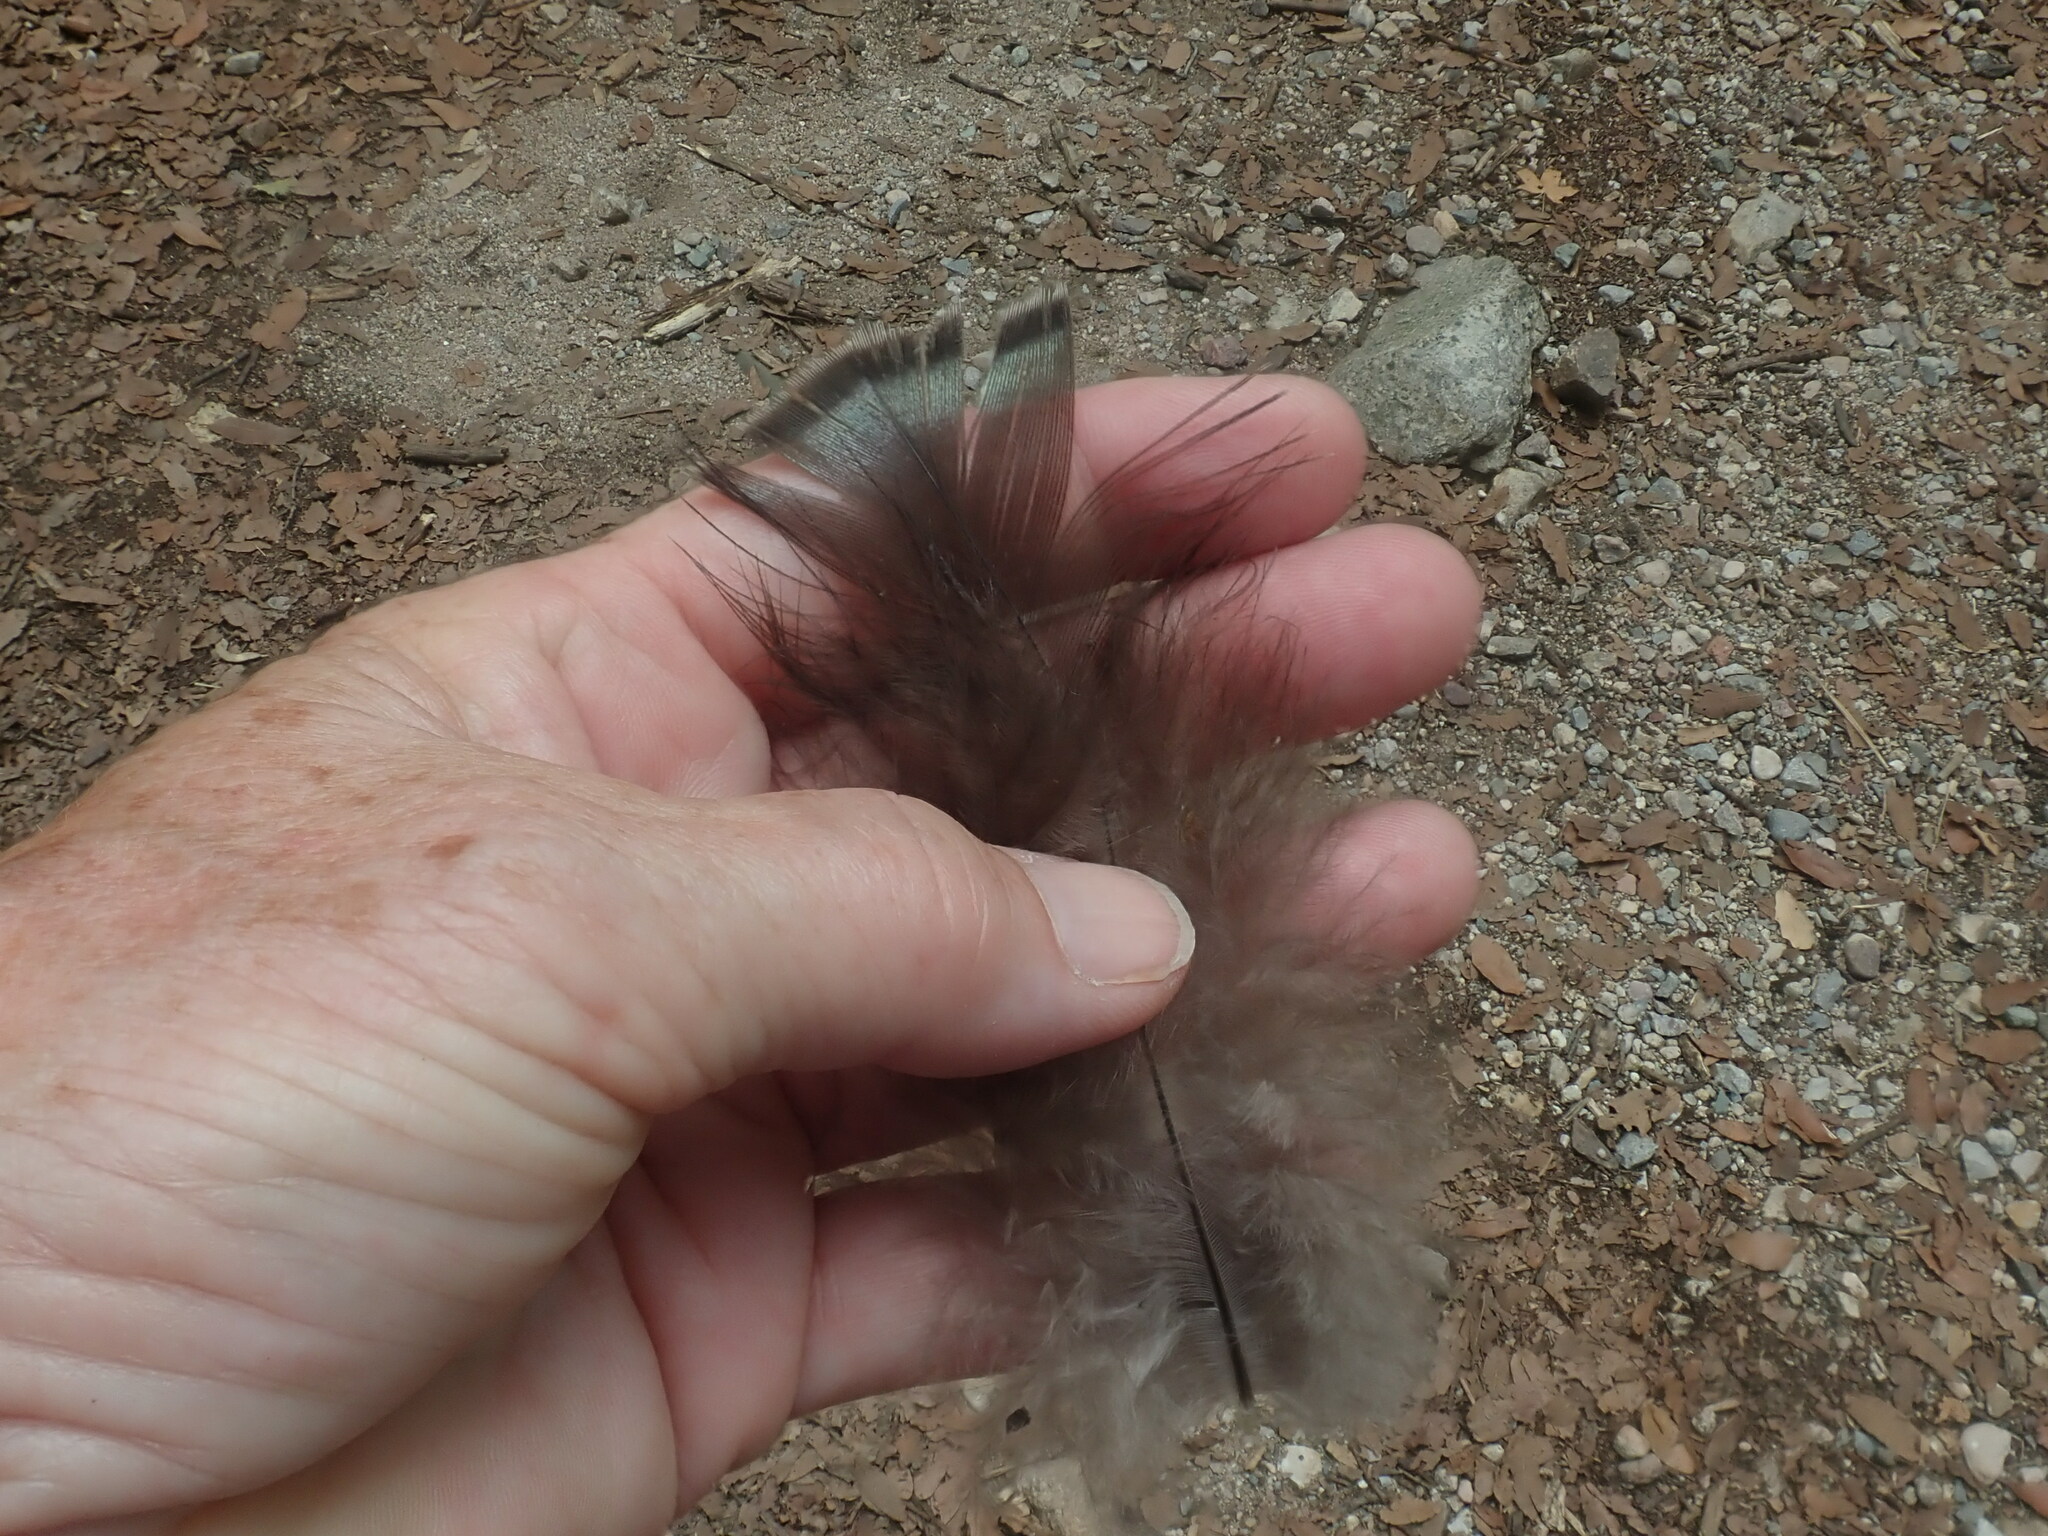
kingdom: Animalia
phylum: Chordata
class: Aves
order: Galliformes
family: Phasianidae
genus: Meleagris
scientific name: Meleagris gallopavo
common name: Wild turkey
